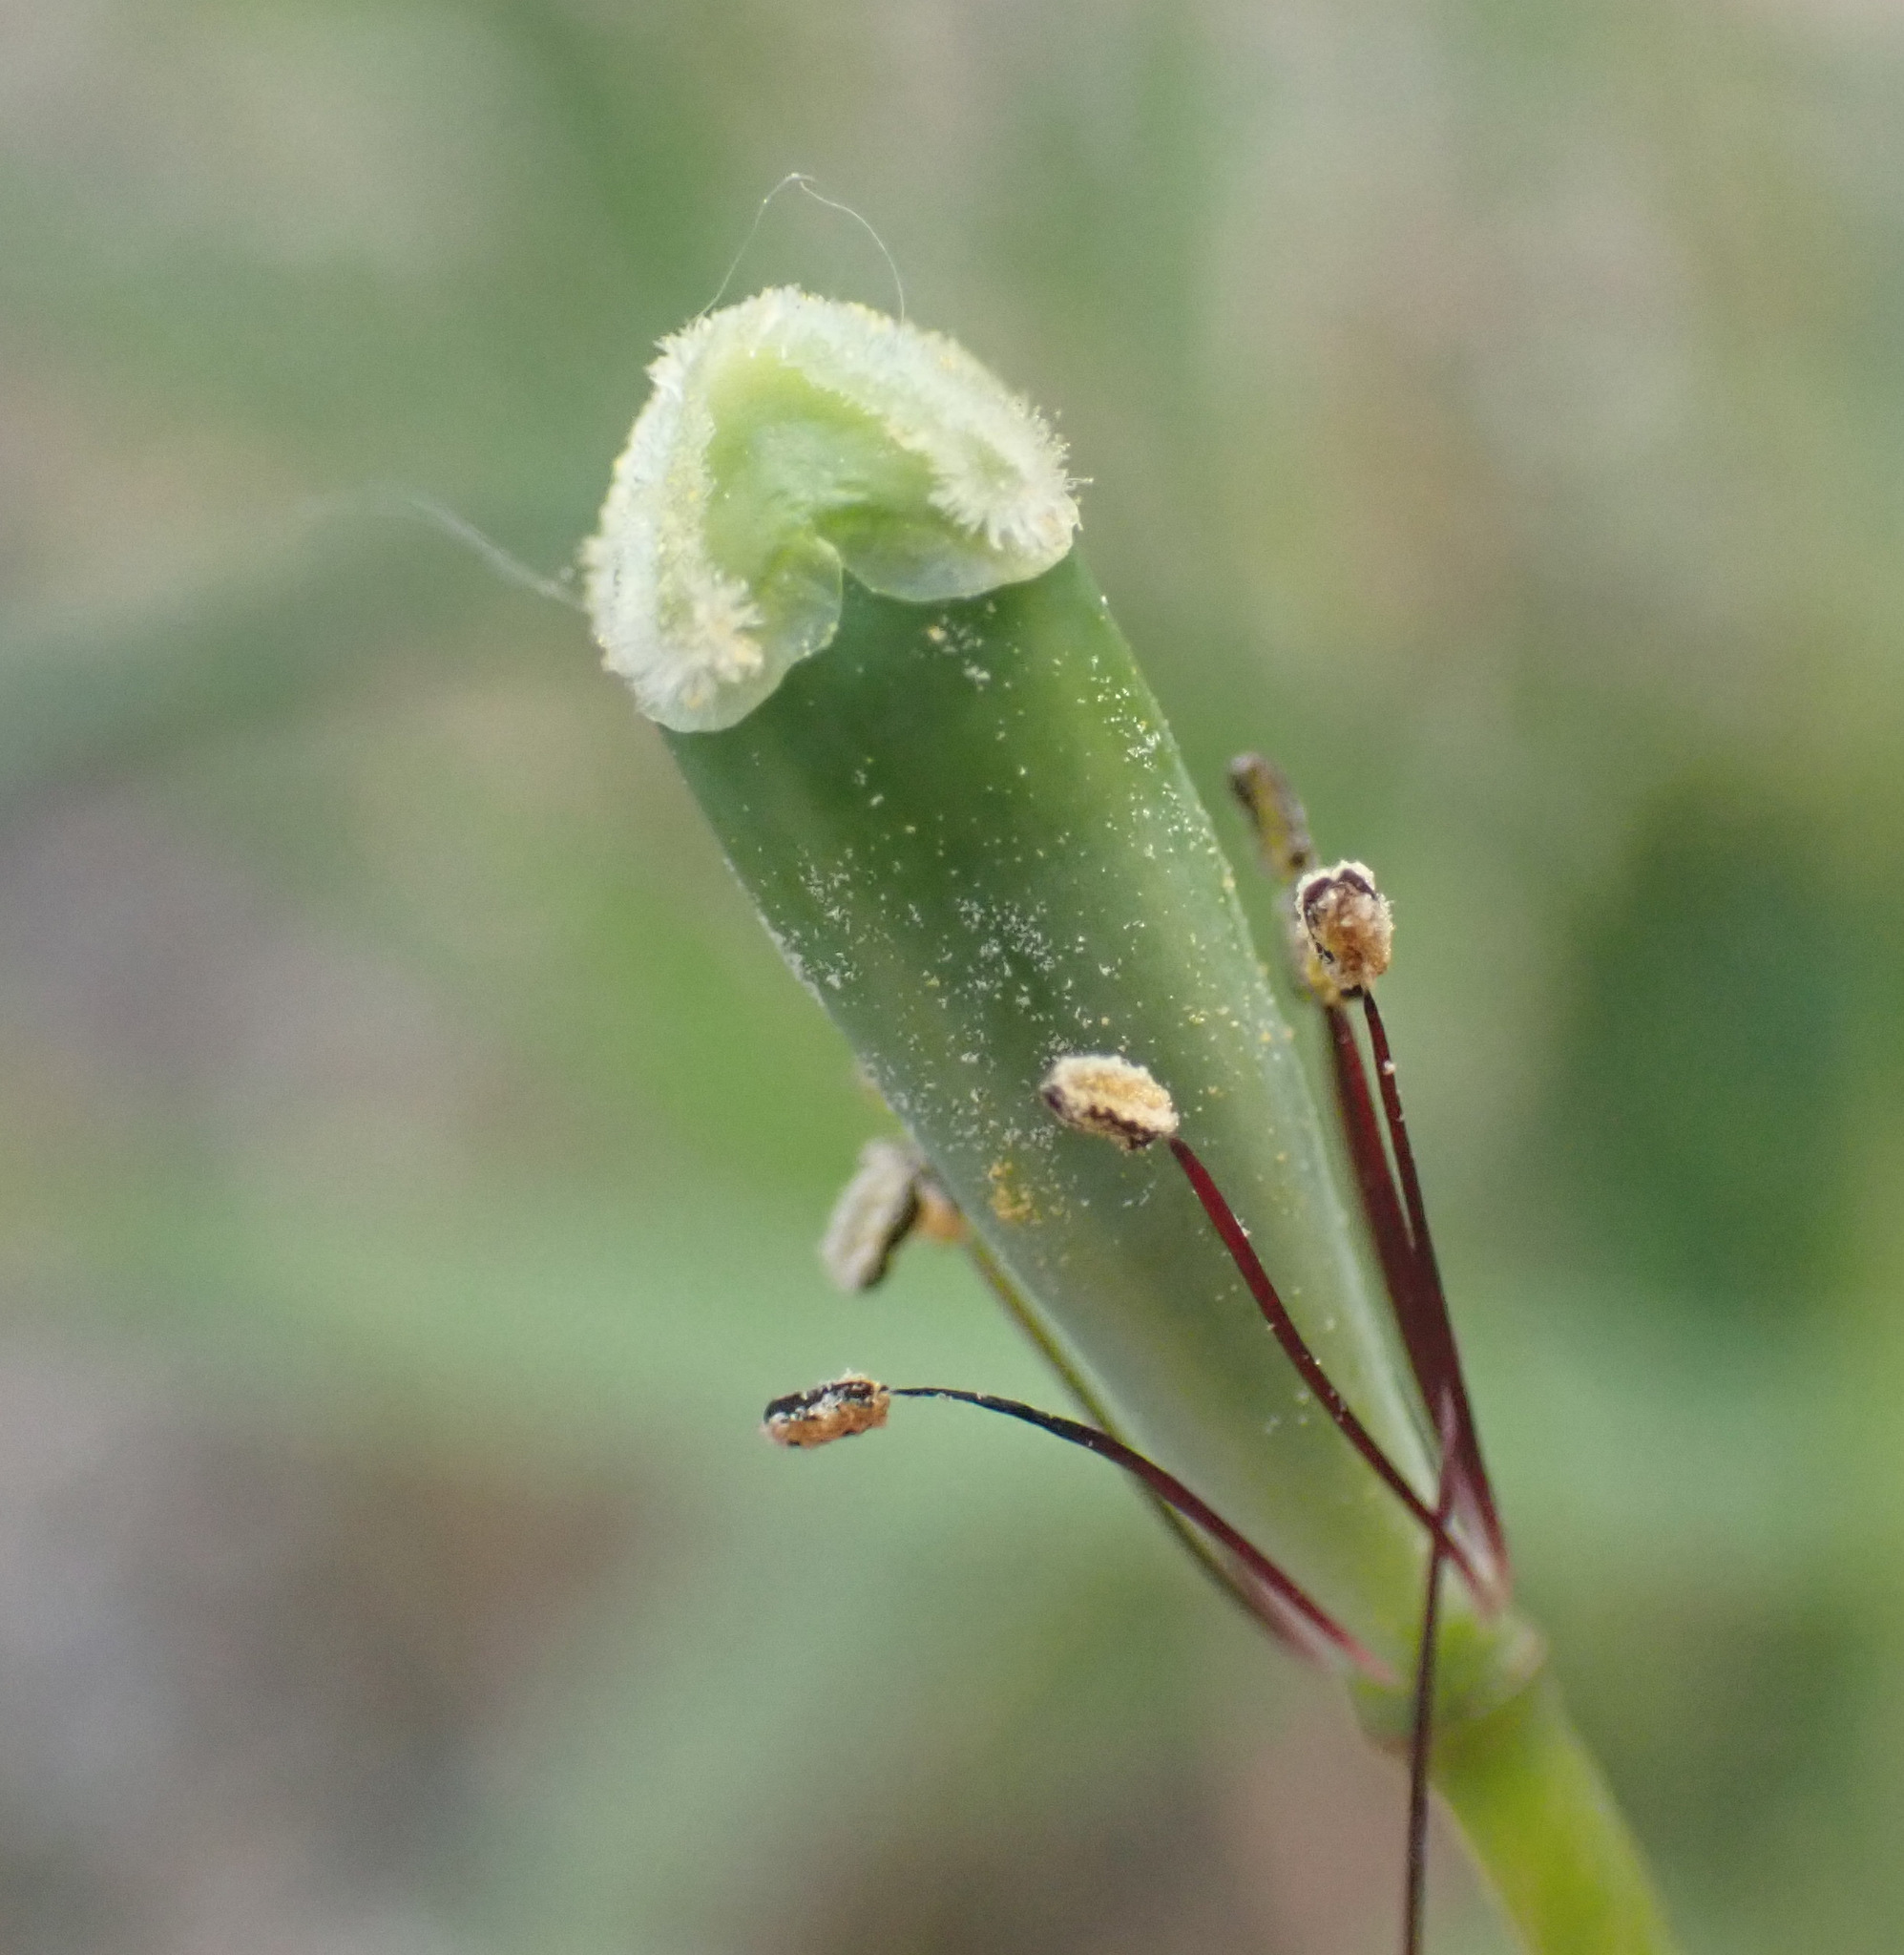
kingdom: Plantae
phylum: Tracheophyta
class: Magnoliopsida
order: Ranunculales
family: Papaveraceae
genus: Papaver
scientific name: Papaver dubium
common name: Long-headed poppy
